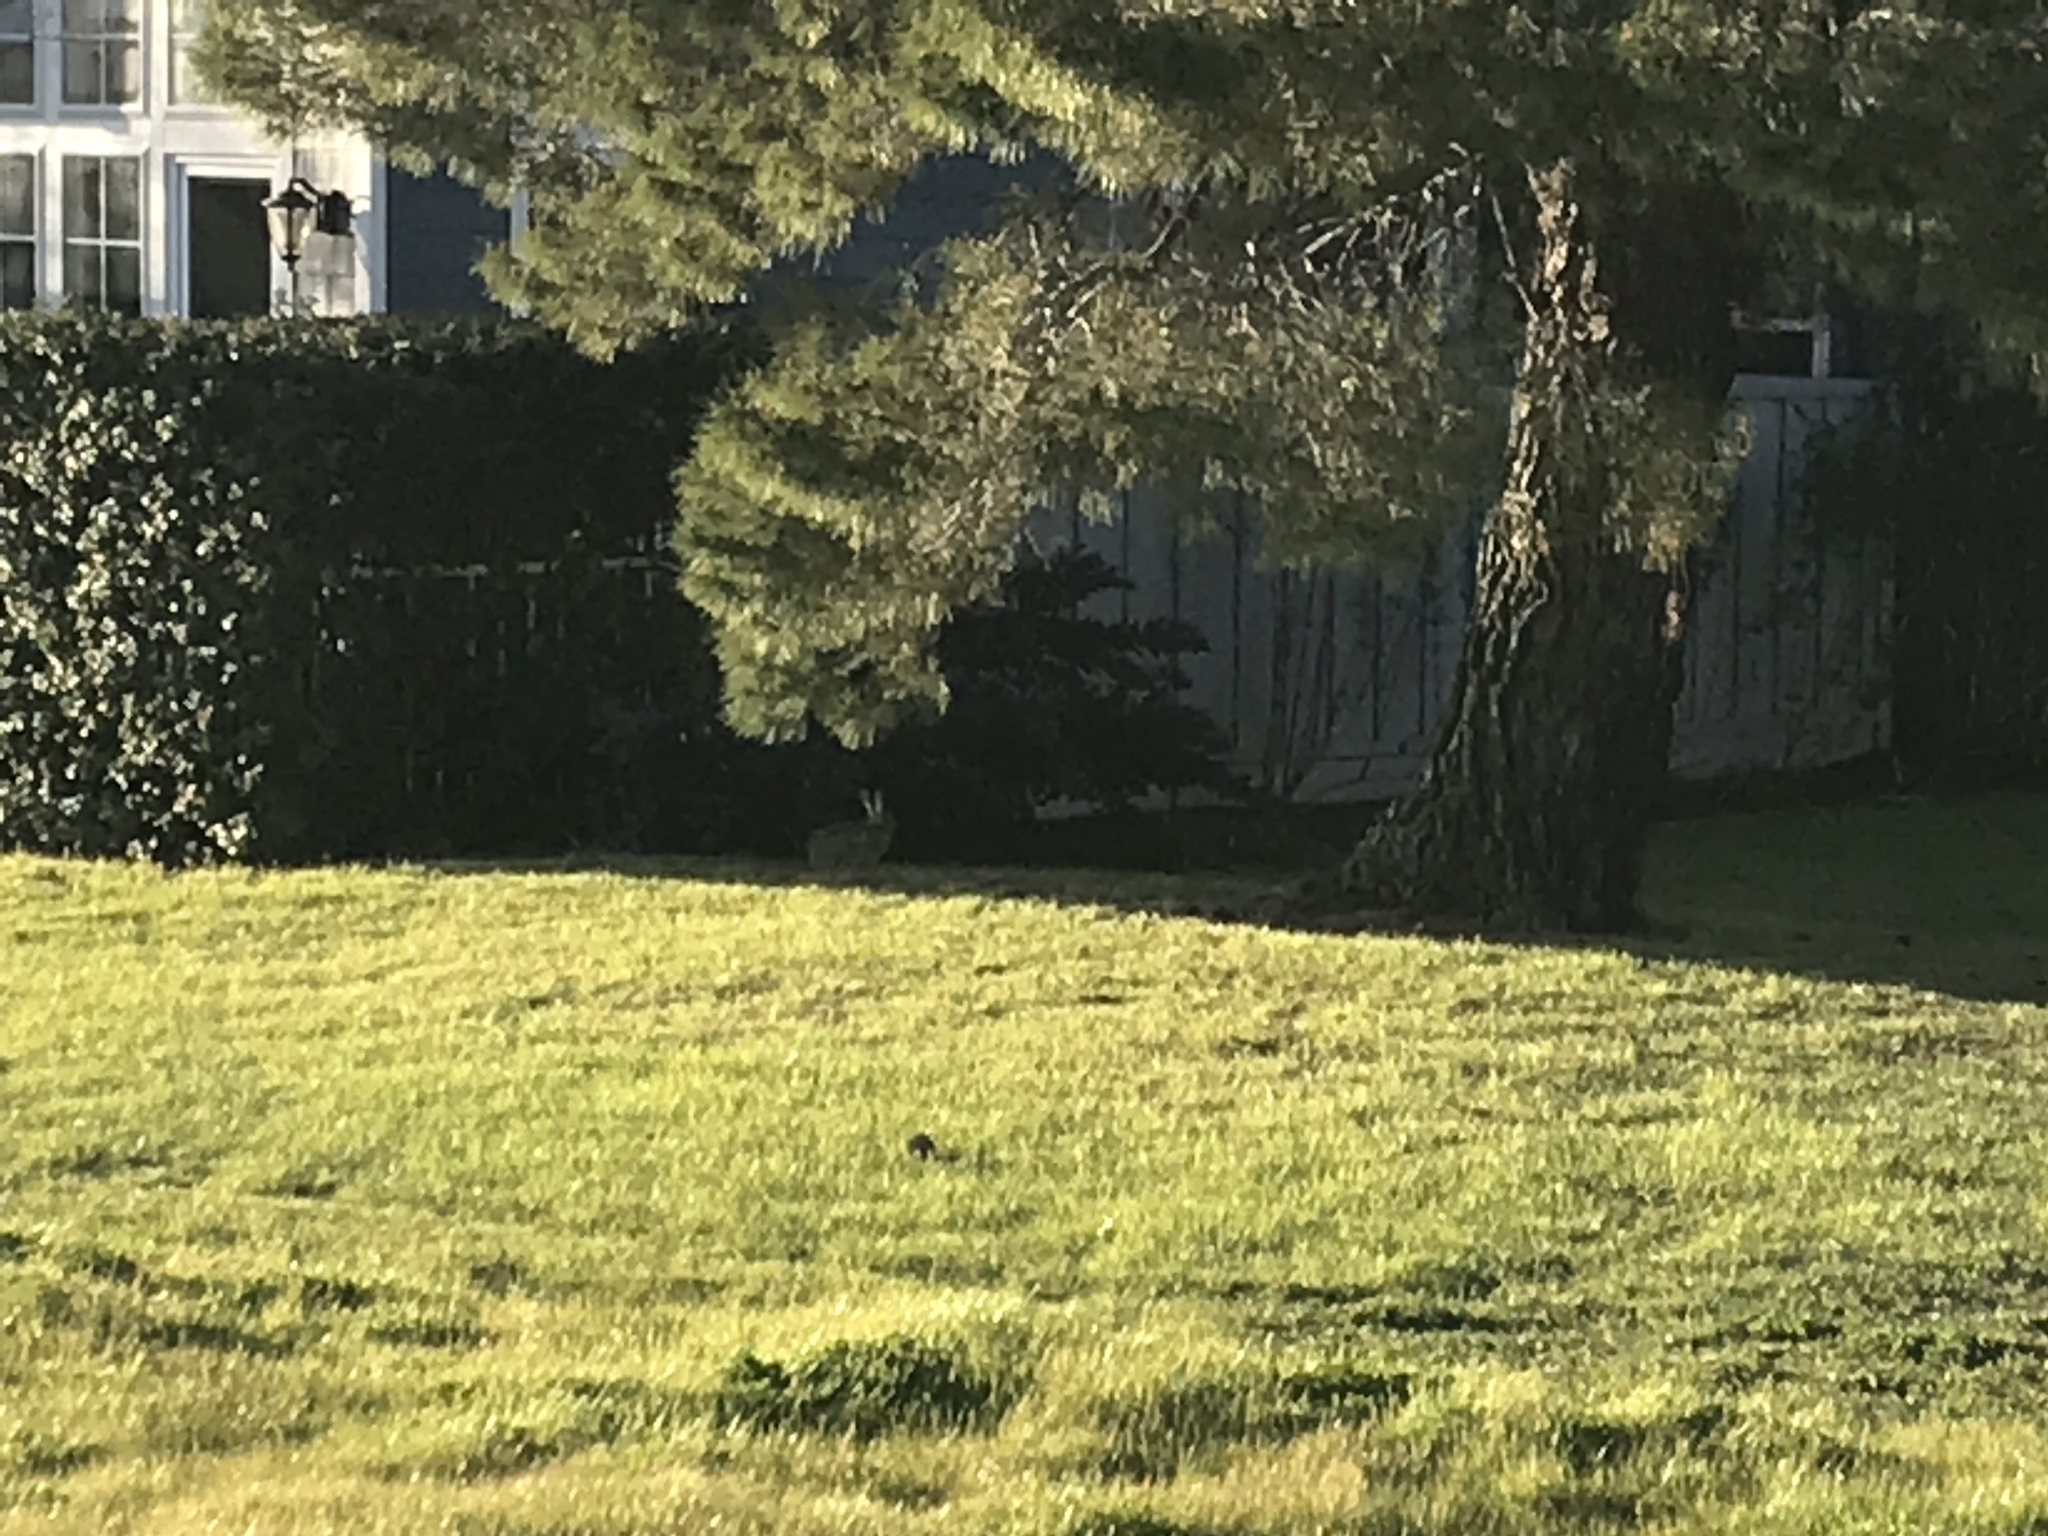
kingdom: Animalia
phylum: Chordata
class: Mammalia
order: Lagomorpha
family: Leporidae
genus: Lepus
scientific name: Lepus californicus
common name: Black-tailed jackrabbit
